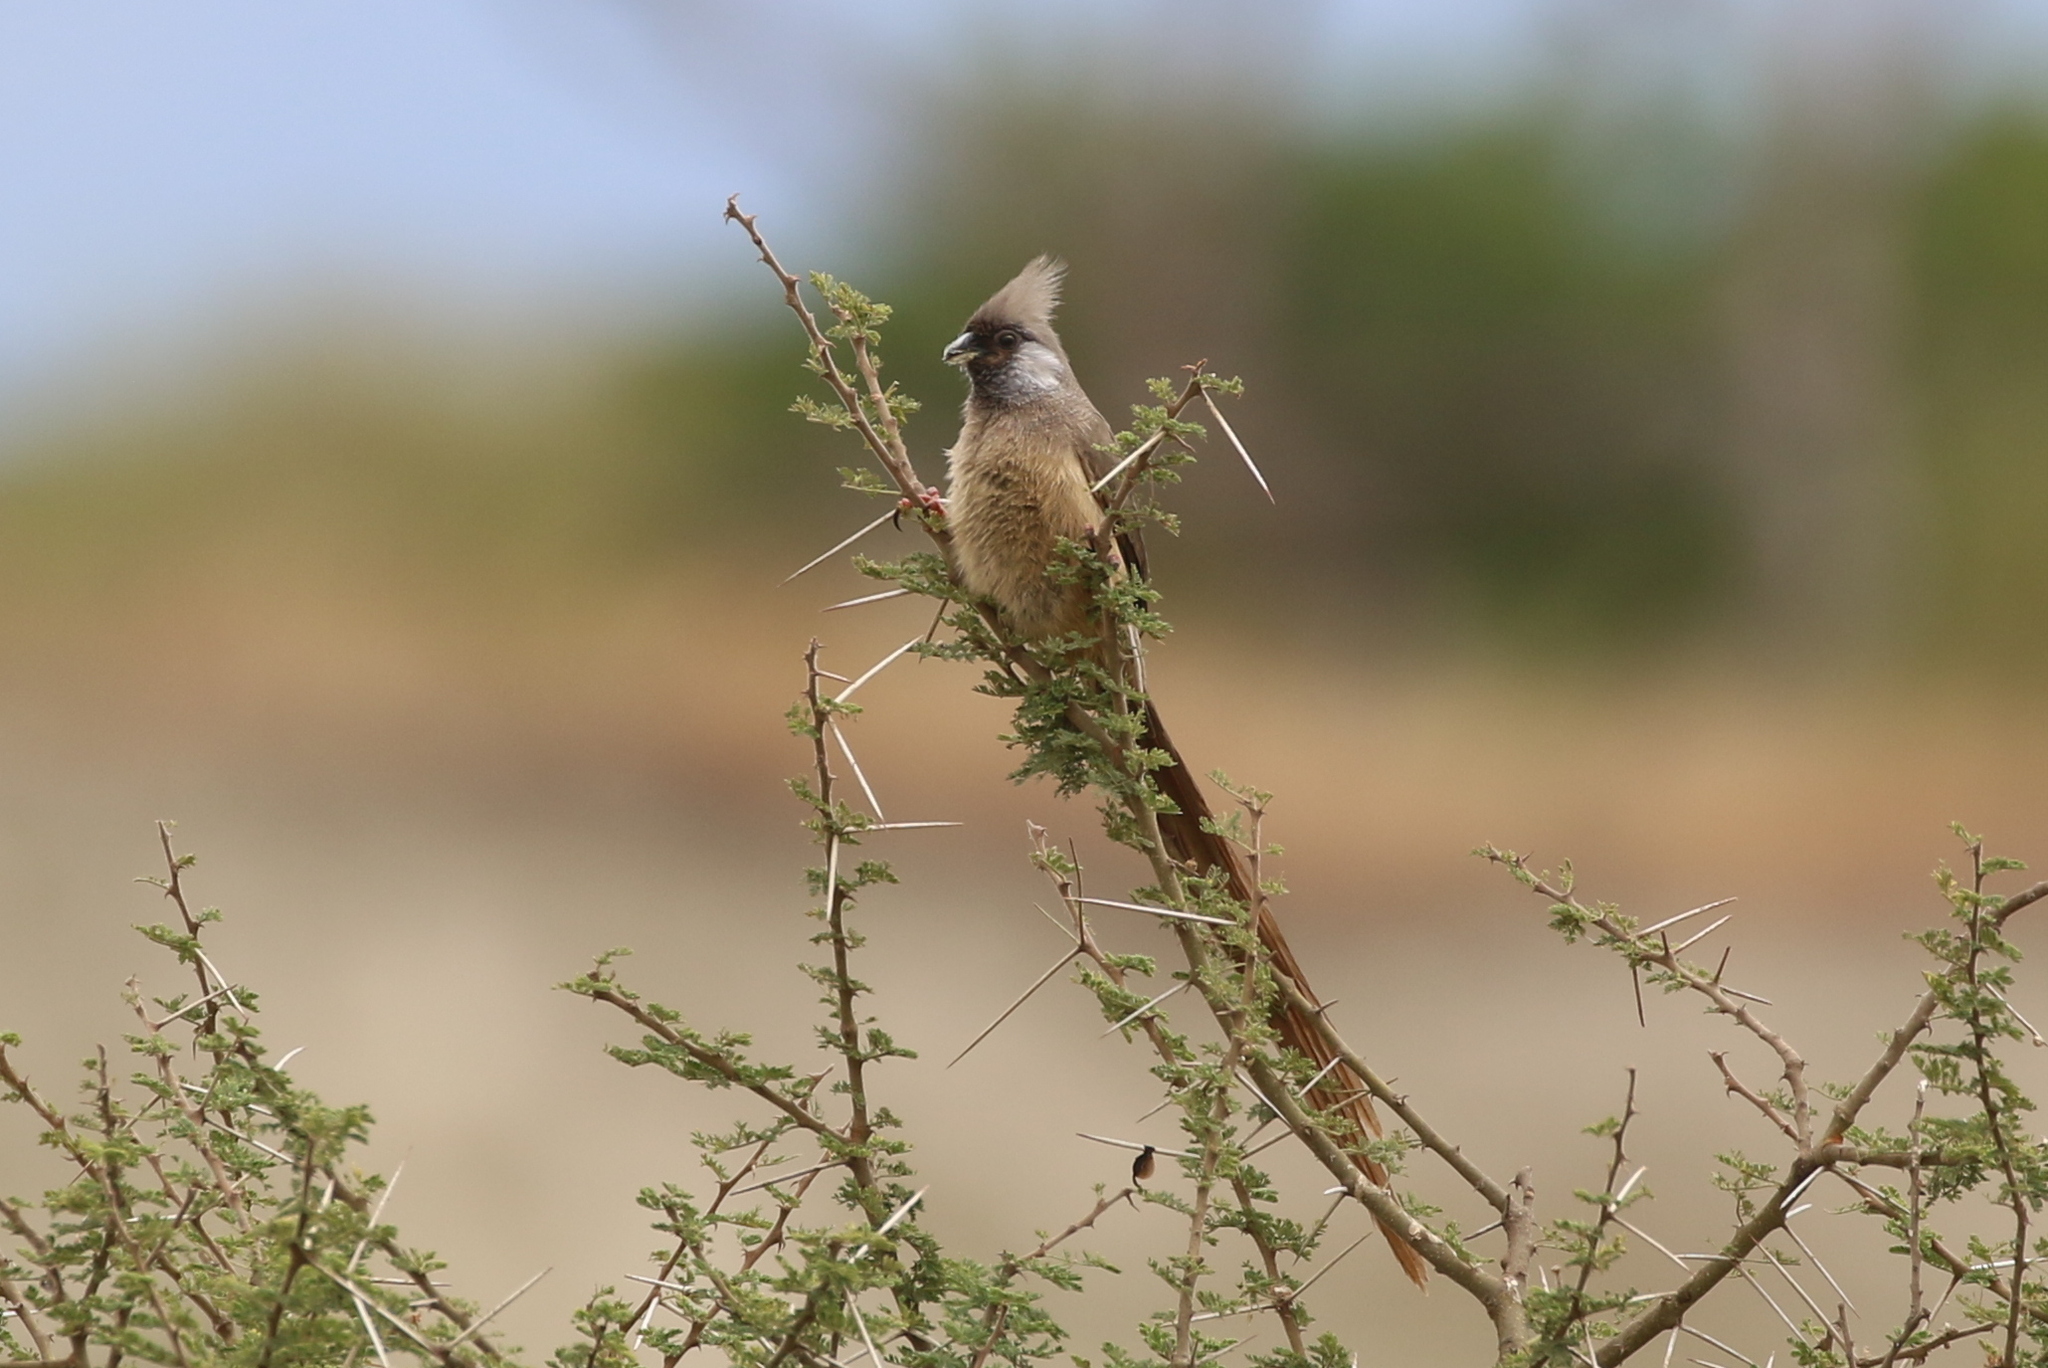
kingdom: Animalia
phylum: Chordata
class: Aves
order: Coliiformes
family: Coliidae
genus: Colius
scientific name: Colius striatus
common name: Speckled mousebird
